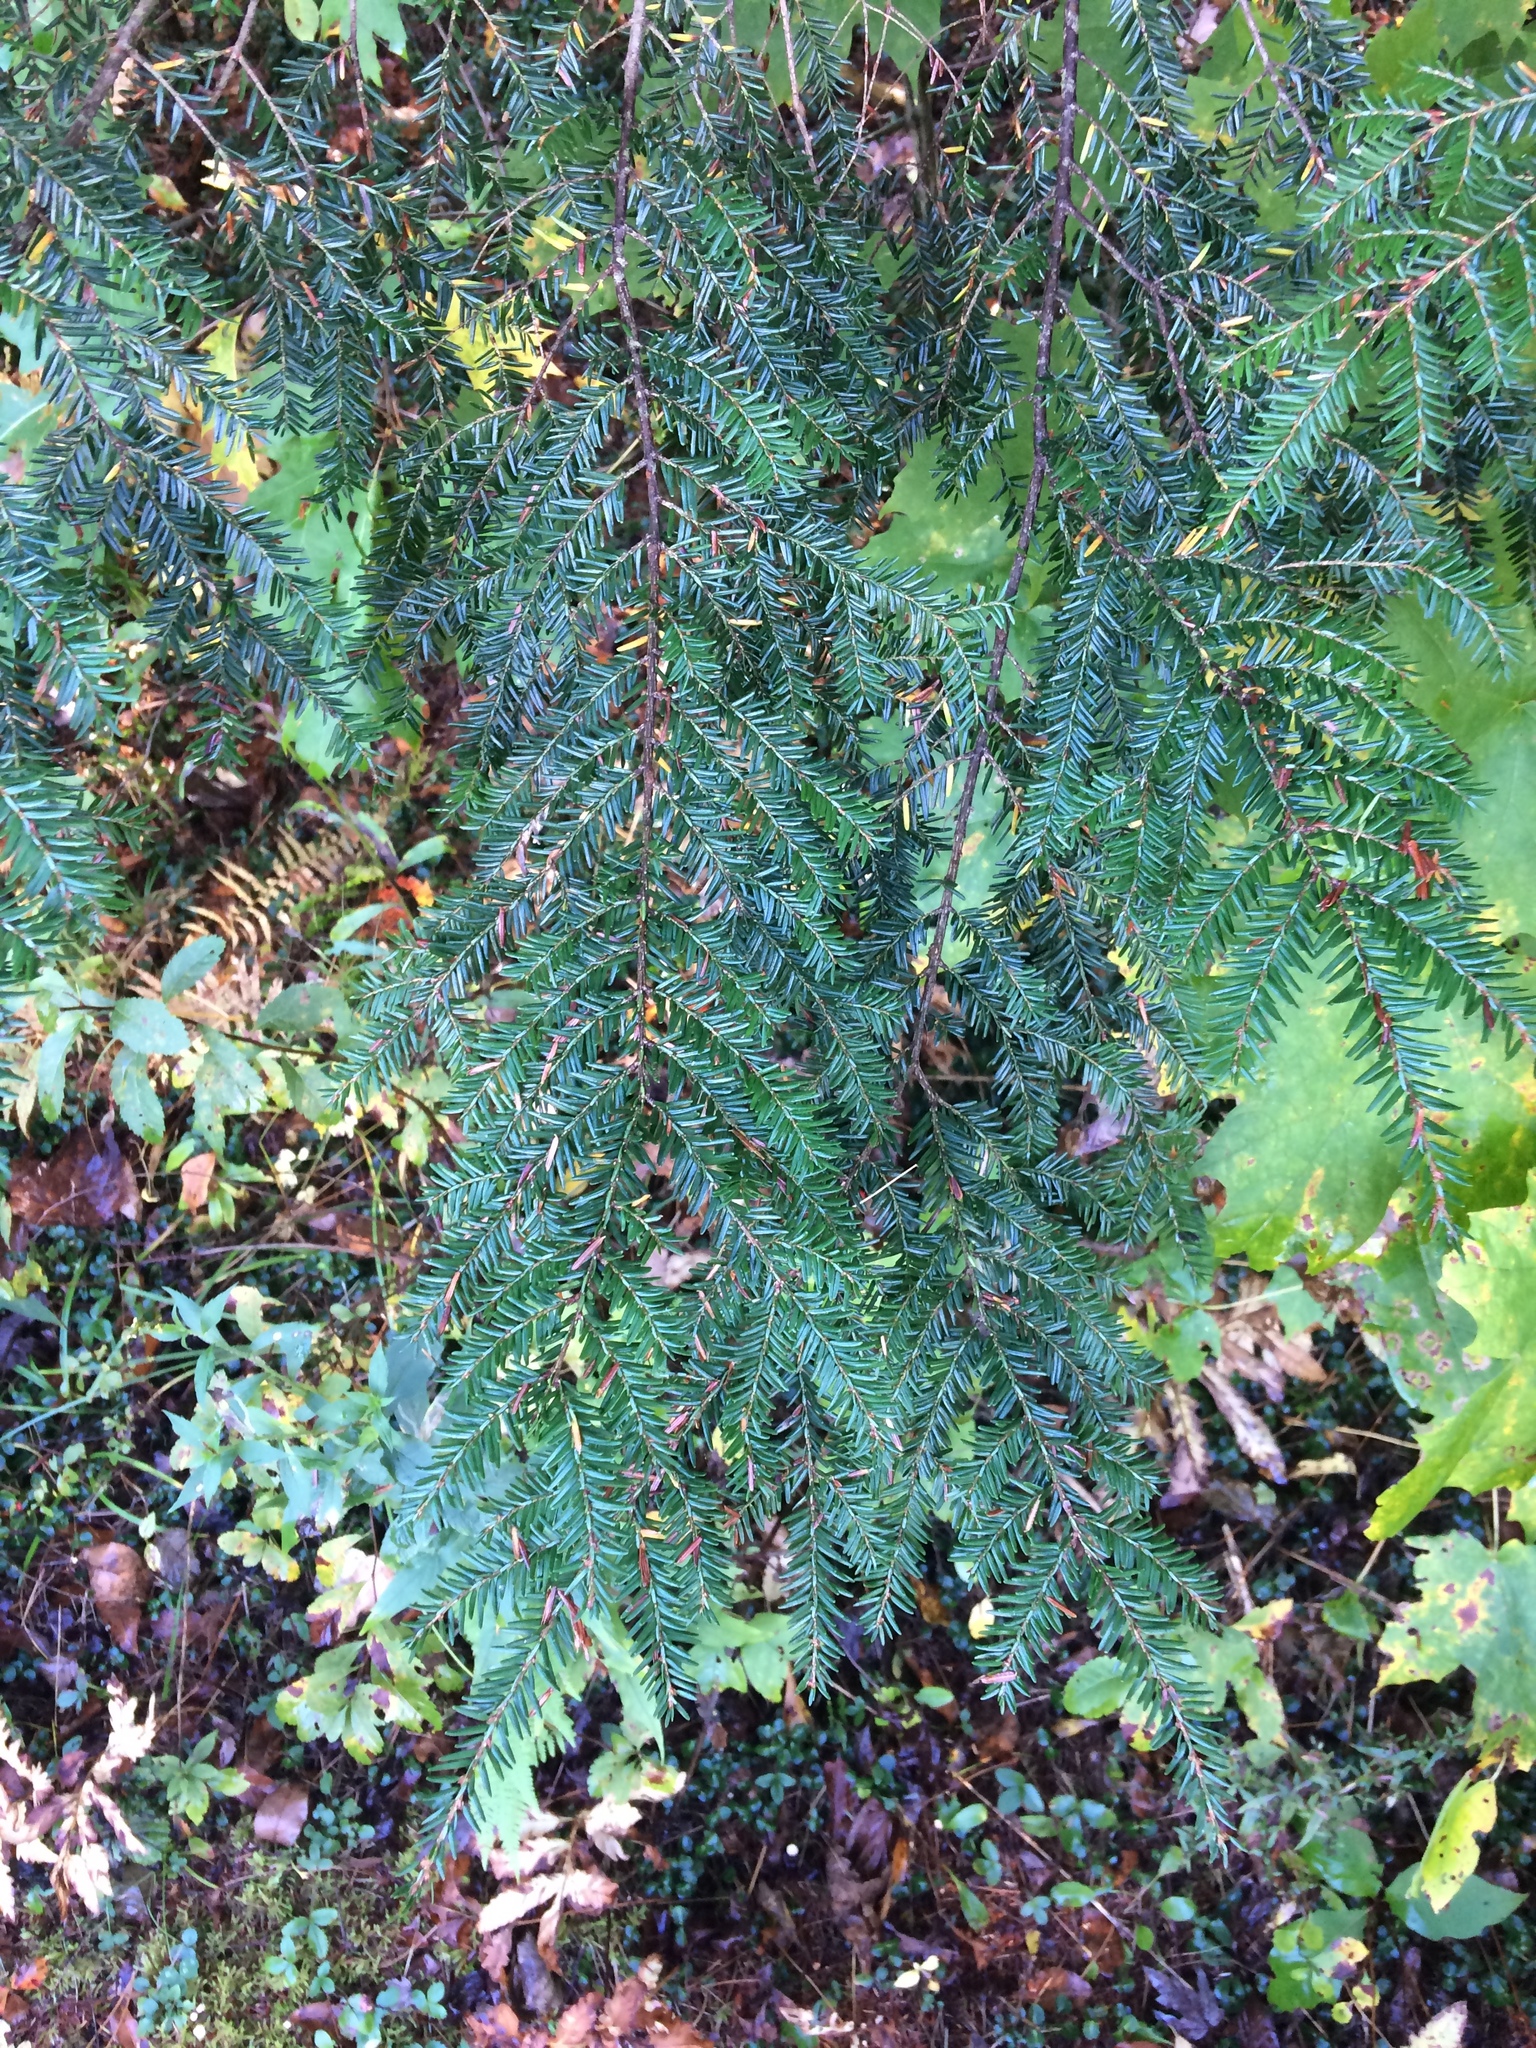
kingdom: Plantae
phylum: Tracheophyta
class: Pinopsida
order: Pinales
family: Pinaceae
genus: Tsuga
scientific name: Tsuga canadensis
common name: Eastern hemlock
